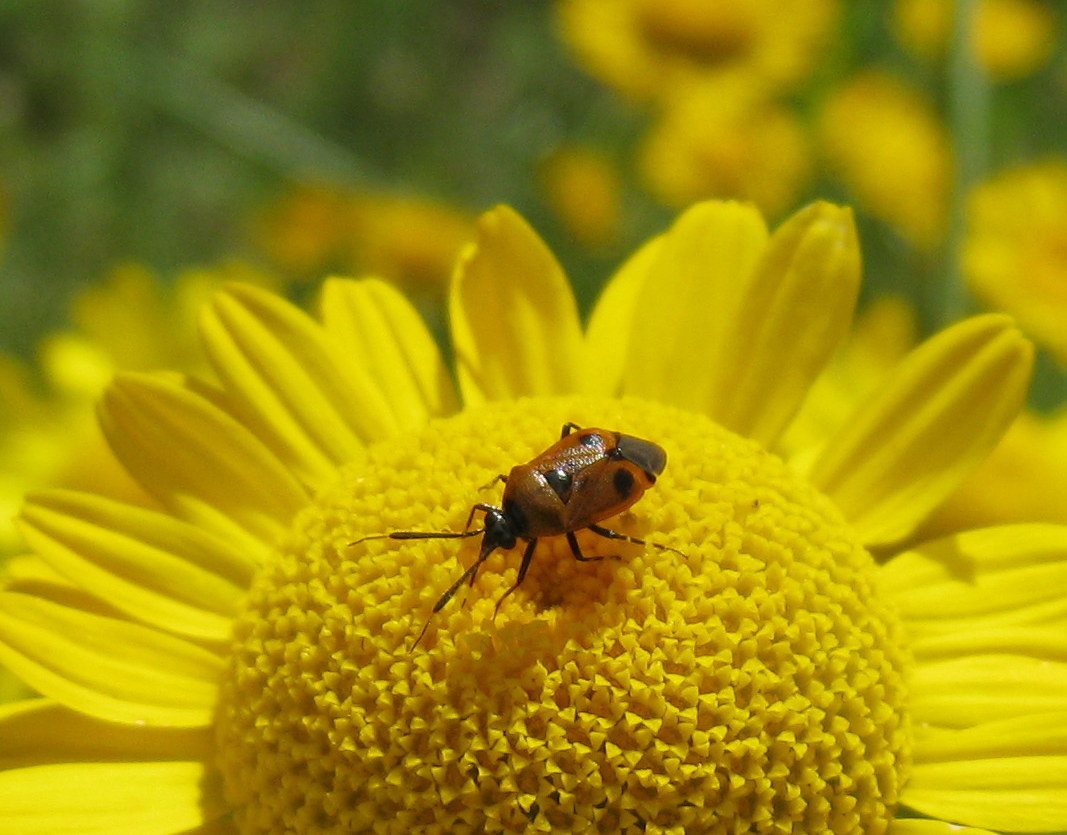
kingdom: Animalia
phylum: Arthropoda
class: Insecta
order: Hemiptera
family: Miridae
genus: Deraeocoris
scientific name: Deraeocoris punctum
